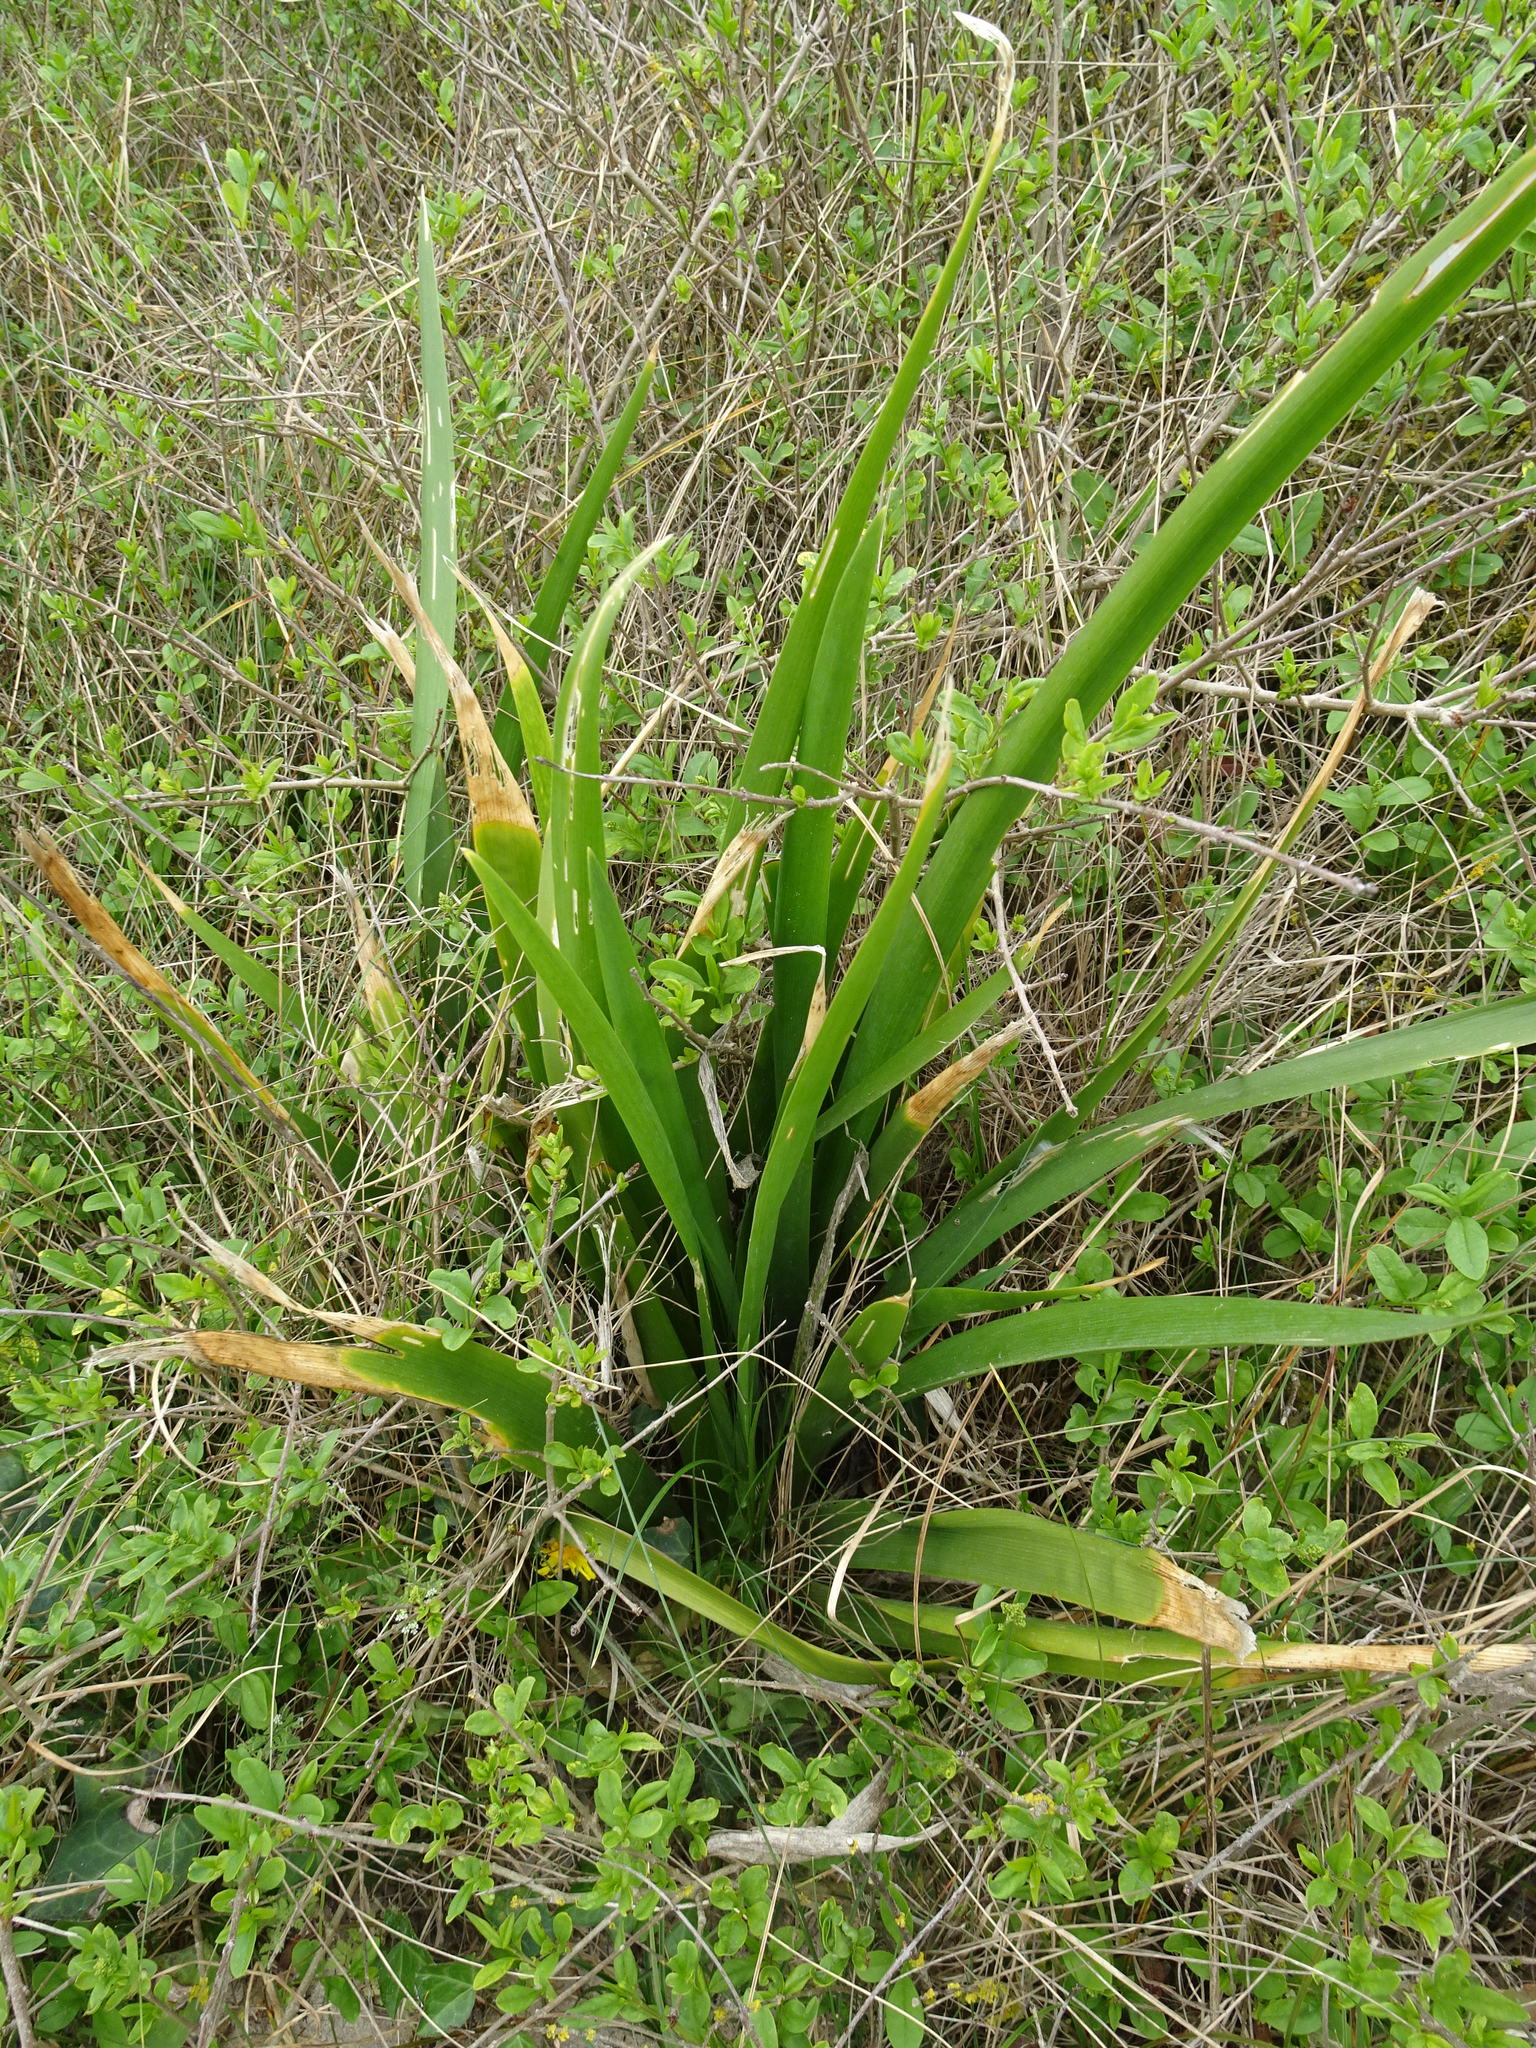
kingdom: Plantae
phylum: Tracheophyta
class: Liliopsida
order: Asparagales
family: Iridaceae
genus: Iris
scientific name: Iris foetidissima
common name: Stinking iris
